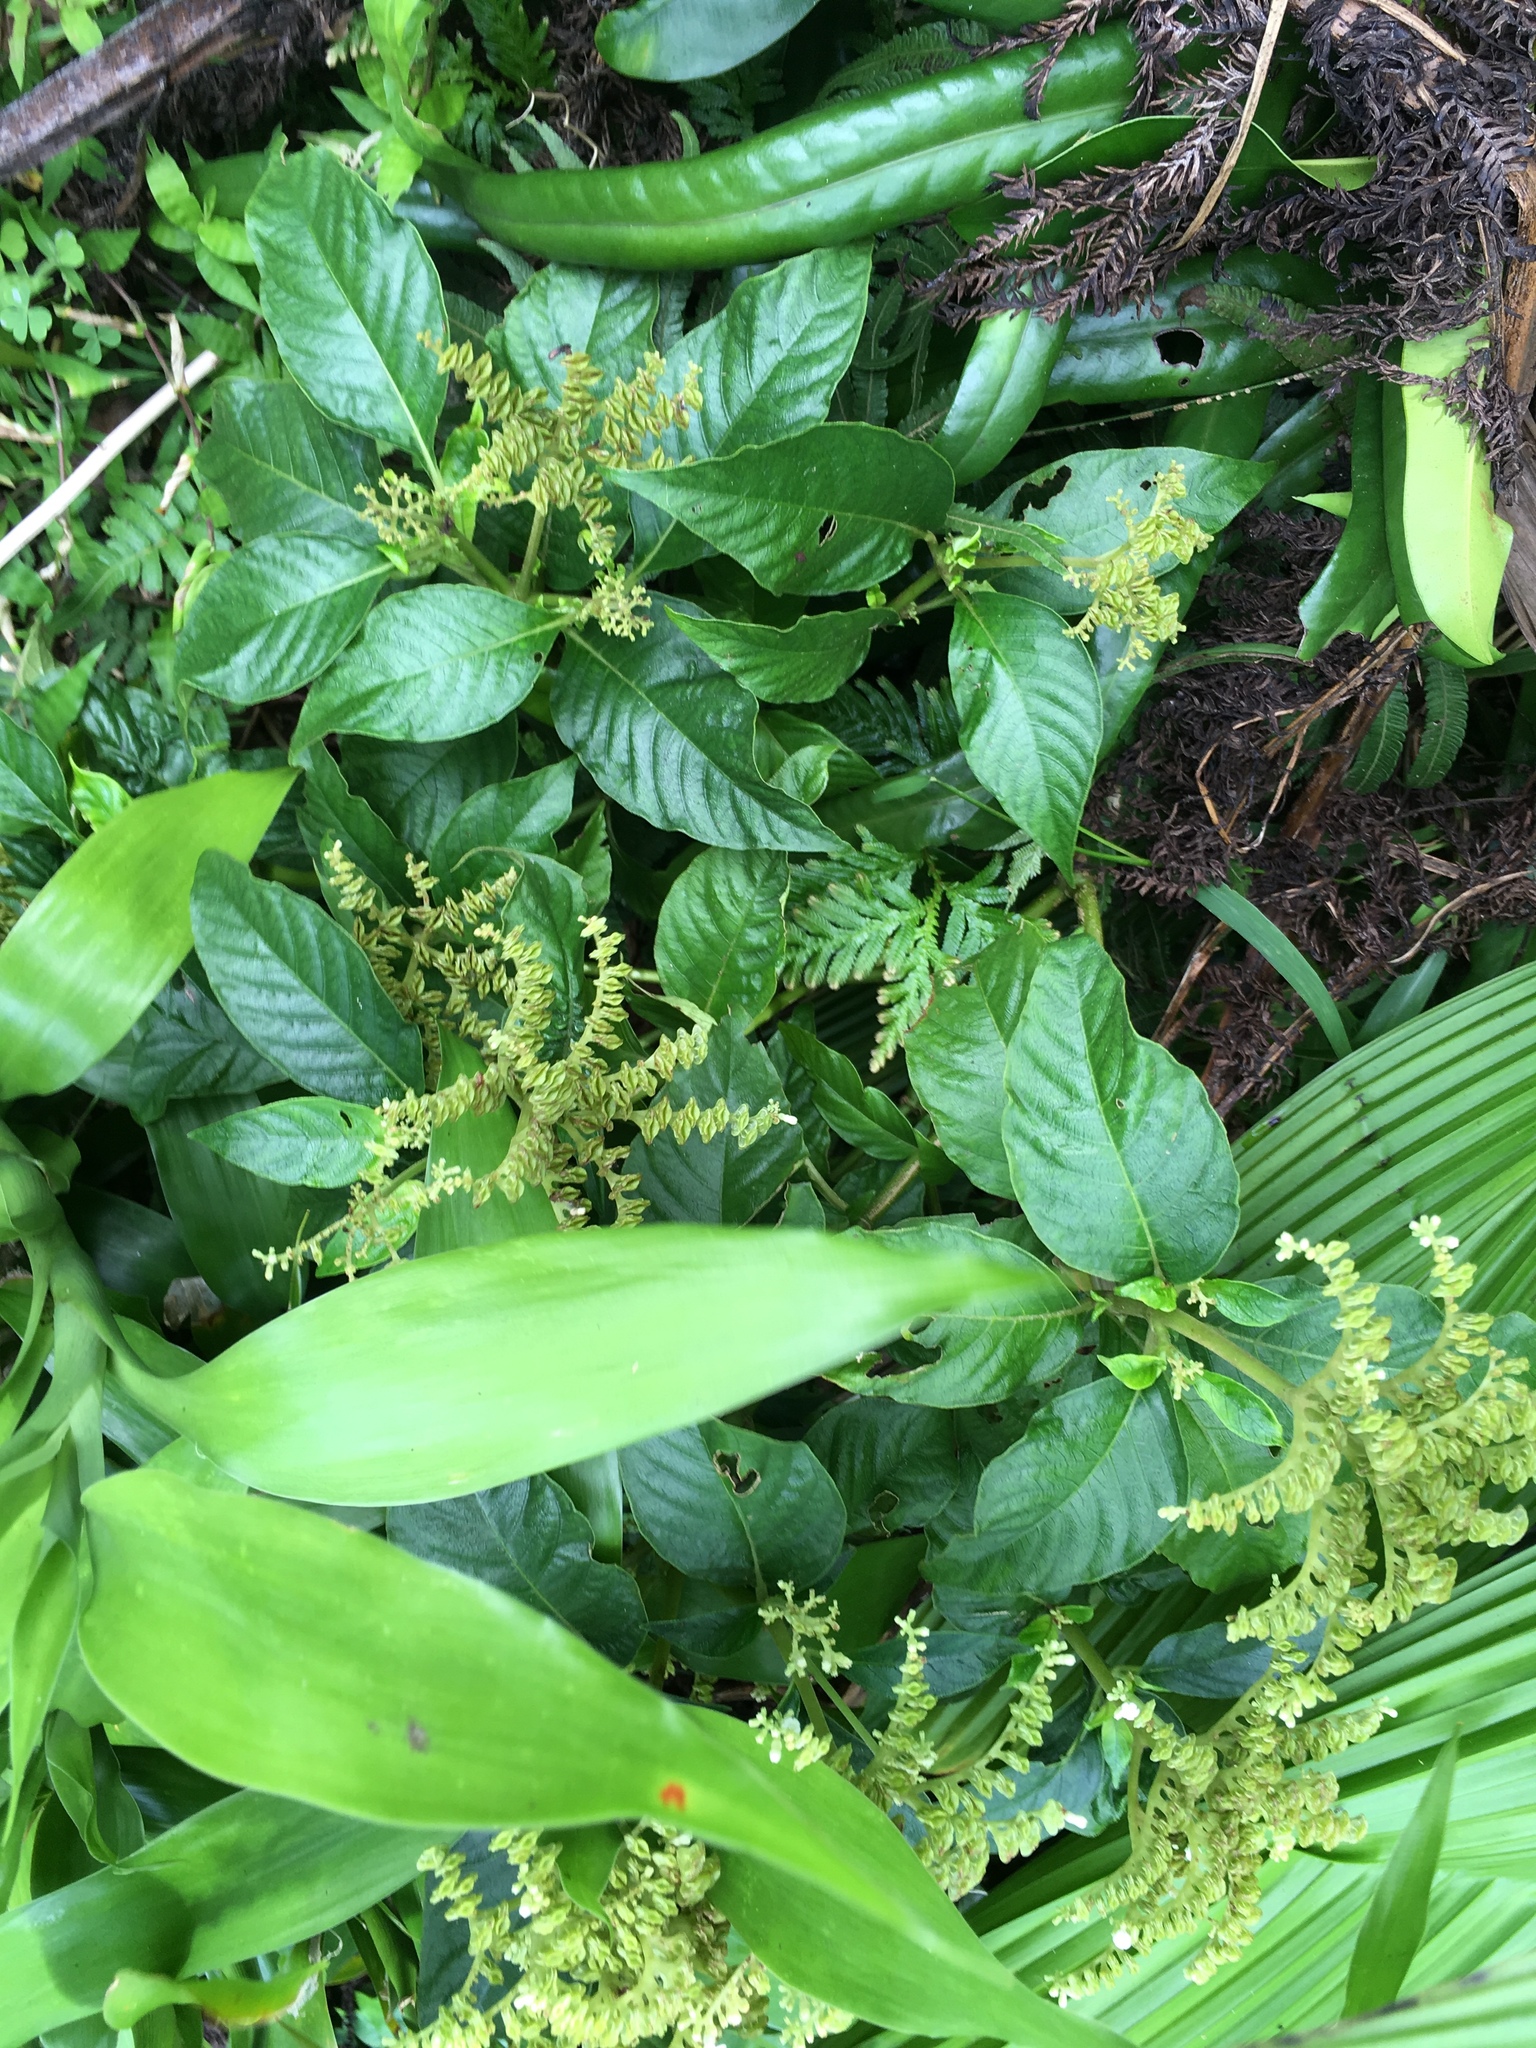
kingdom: Plantae
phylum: Tracheophyta
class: Magnoliopsida
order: Gentianales
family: Rubiaceae
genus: Ophiorrhiza
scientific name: Ophiorrhiza kuroiwae
